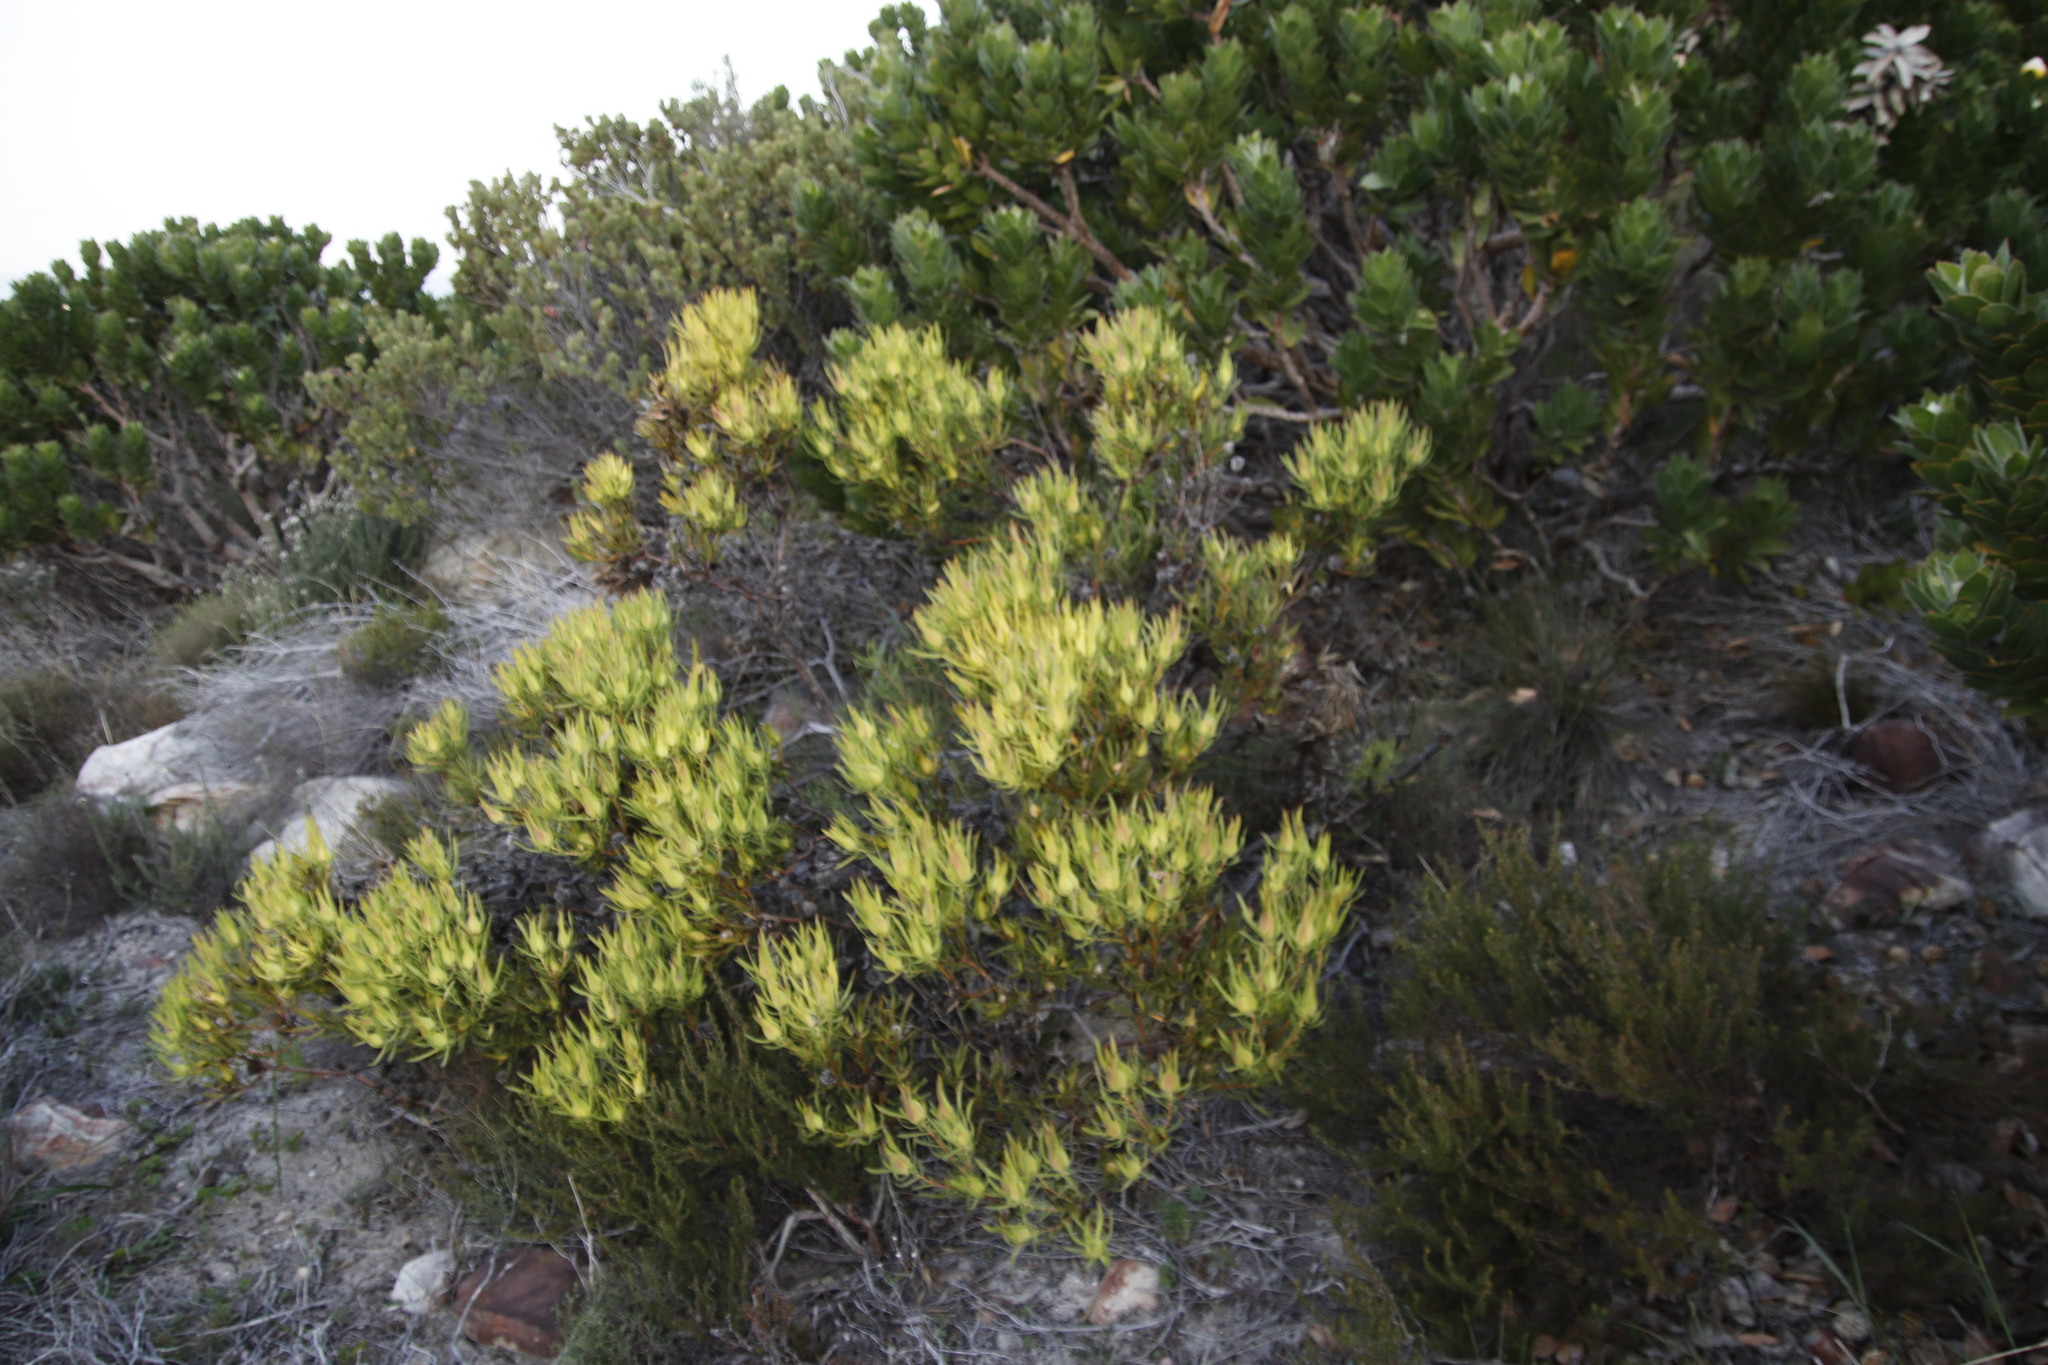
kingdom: Plantae
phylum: Tracheophyta
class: Magnoliopsida
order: Proteales
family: Proteaceae
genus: Leucadendron
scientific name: Leucadendron salignum
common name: Common sunshine conebush
